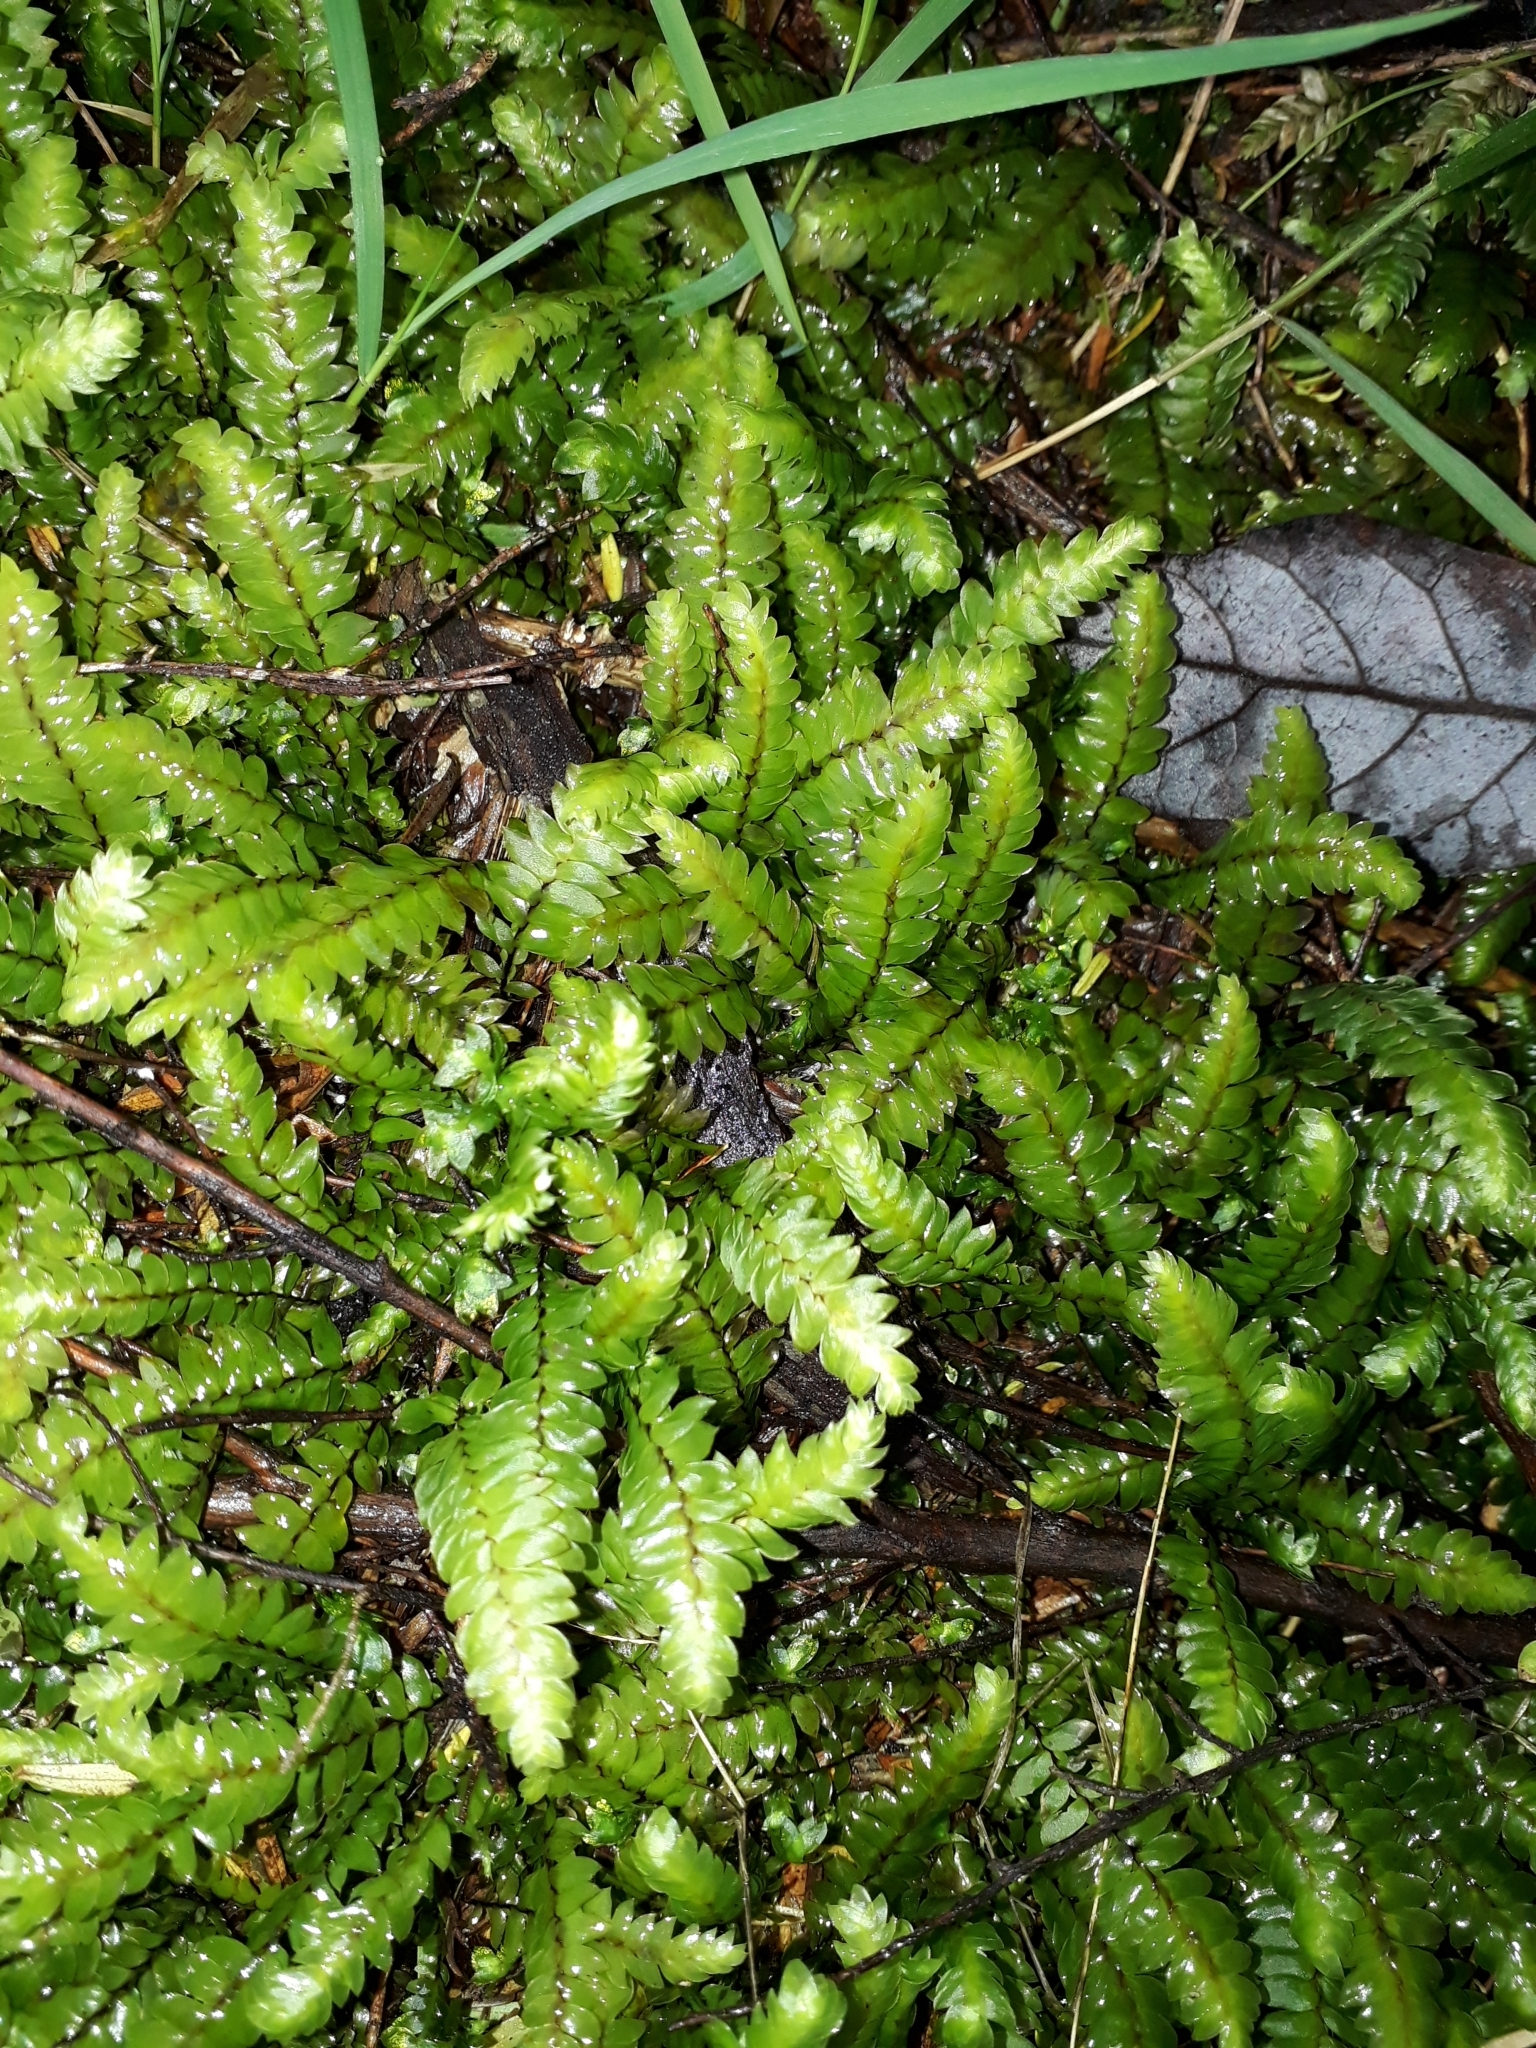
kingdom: Plantae
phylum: Bryophyta
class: Bryopsida
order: Hypopterygiales
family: Hypopterygiaceae
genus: Cyathophorum
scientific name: Cyathophorum bulbosum
